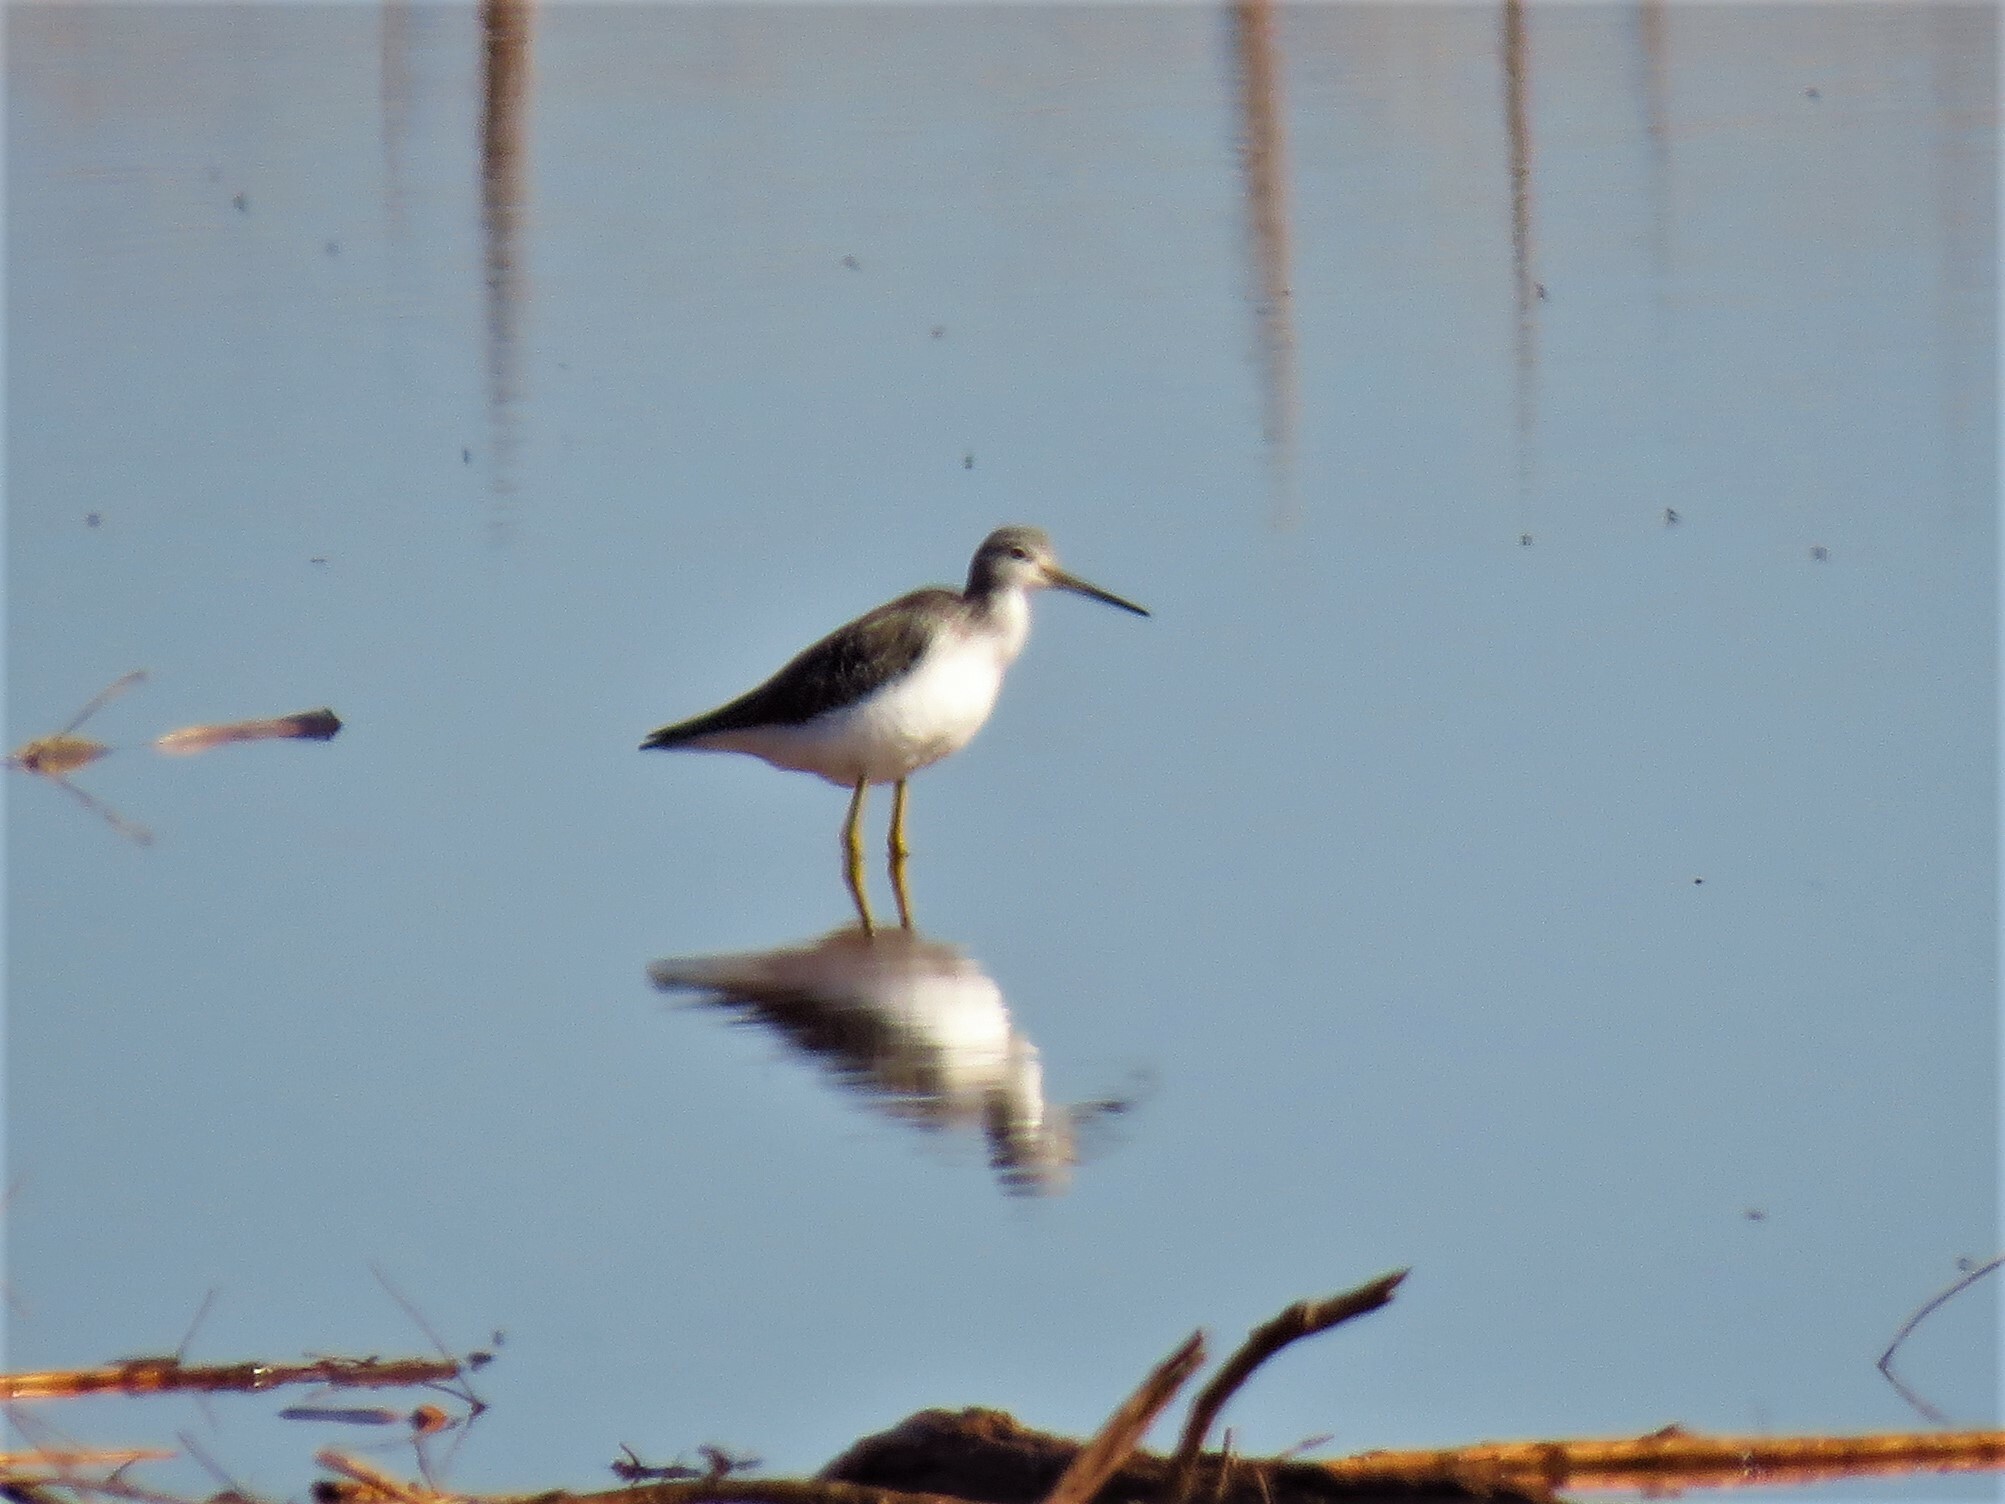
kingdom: Animalia
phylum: Chordata
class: Aves
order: Charadriiformes
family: Scolopacidae
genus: Tringa
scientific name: Tringa melanoleuca
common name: Greater yellowlegs
